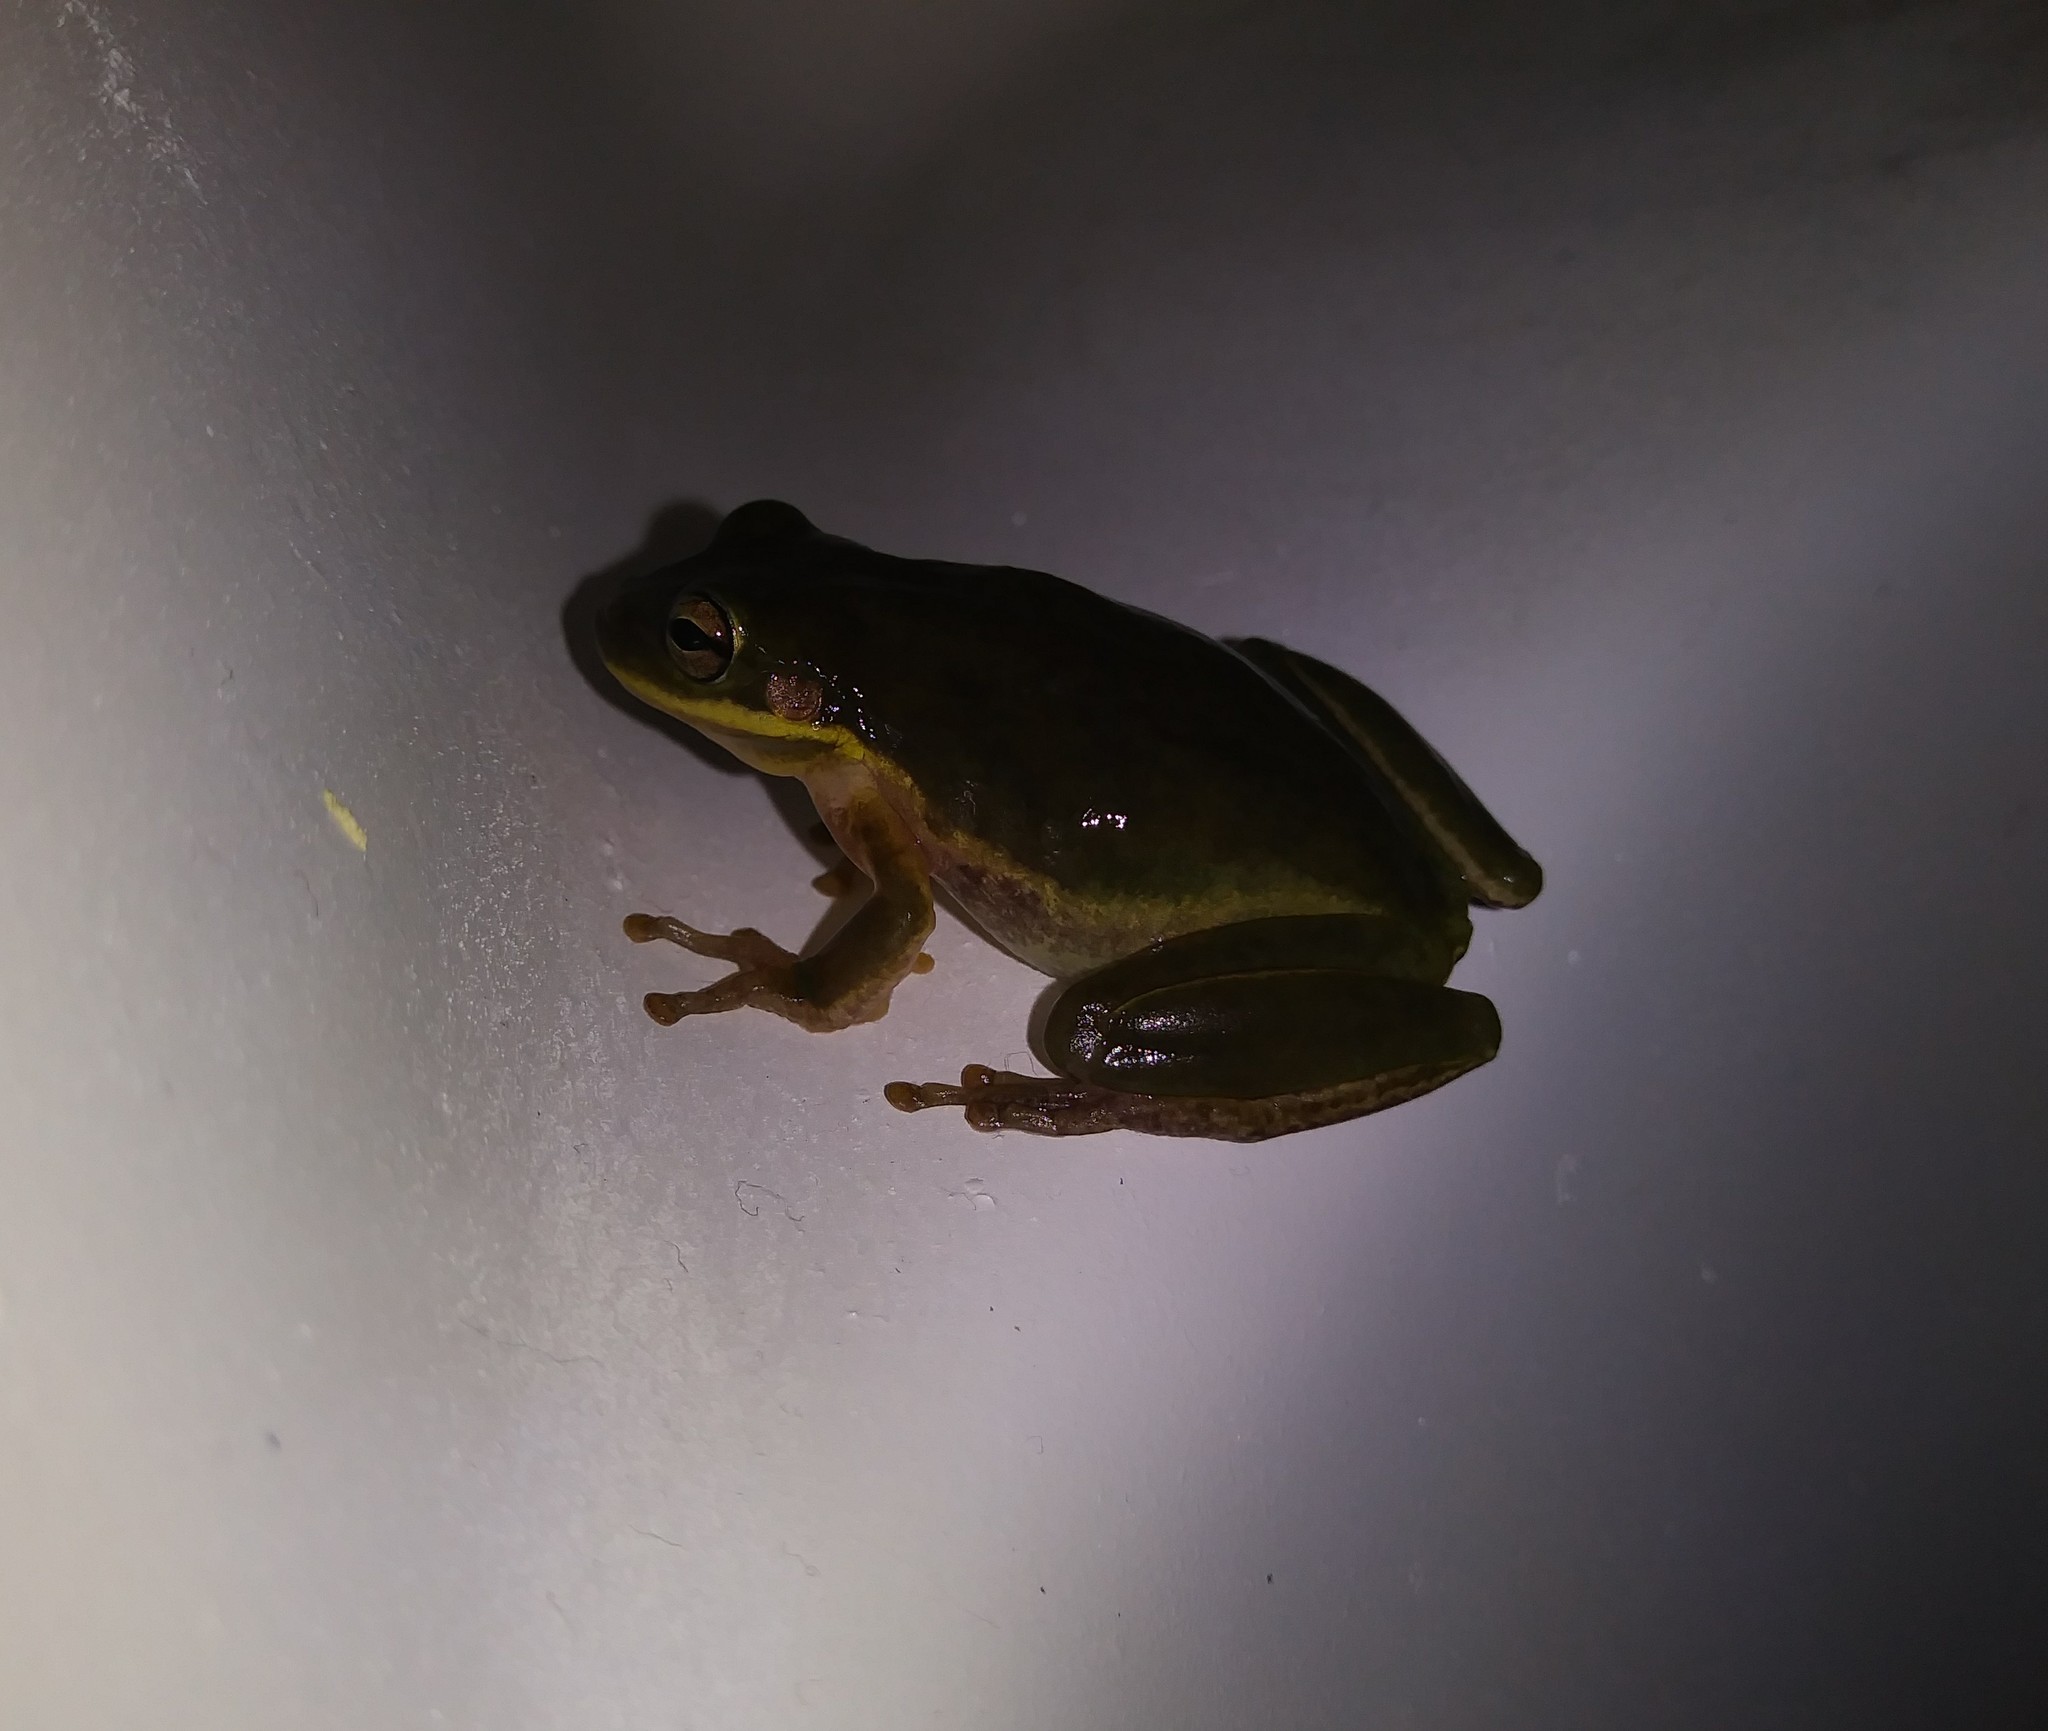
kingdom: Animalia
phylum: Chordata
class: Amphibia
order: Anura
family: Hylidae
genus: Dryophytes
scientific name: Dryophytes squirellus
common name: Squirrel treefrog
